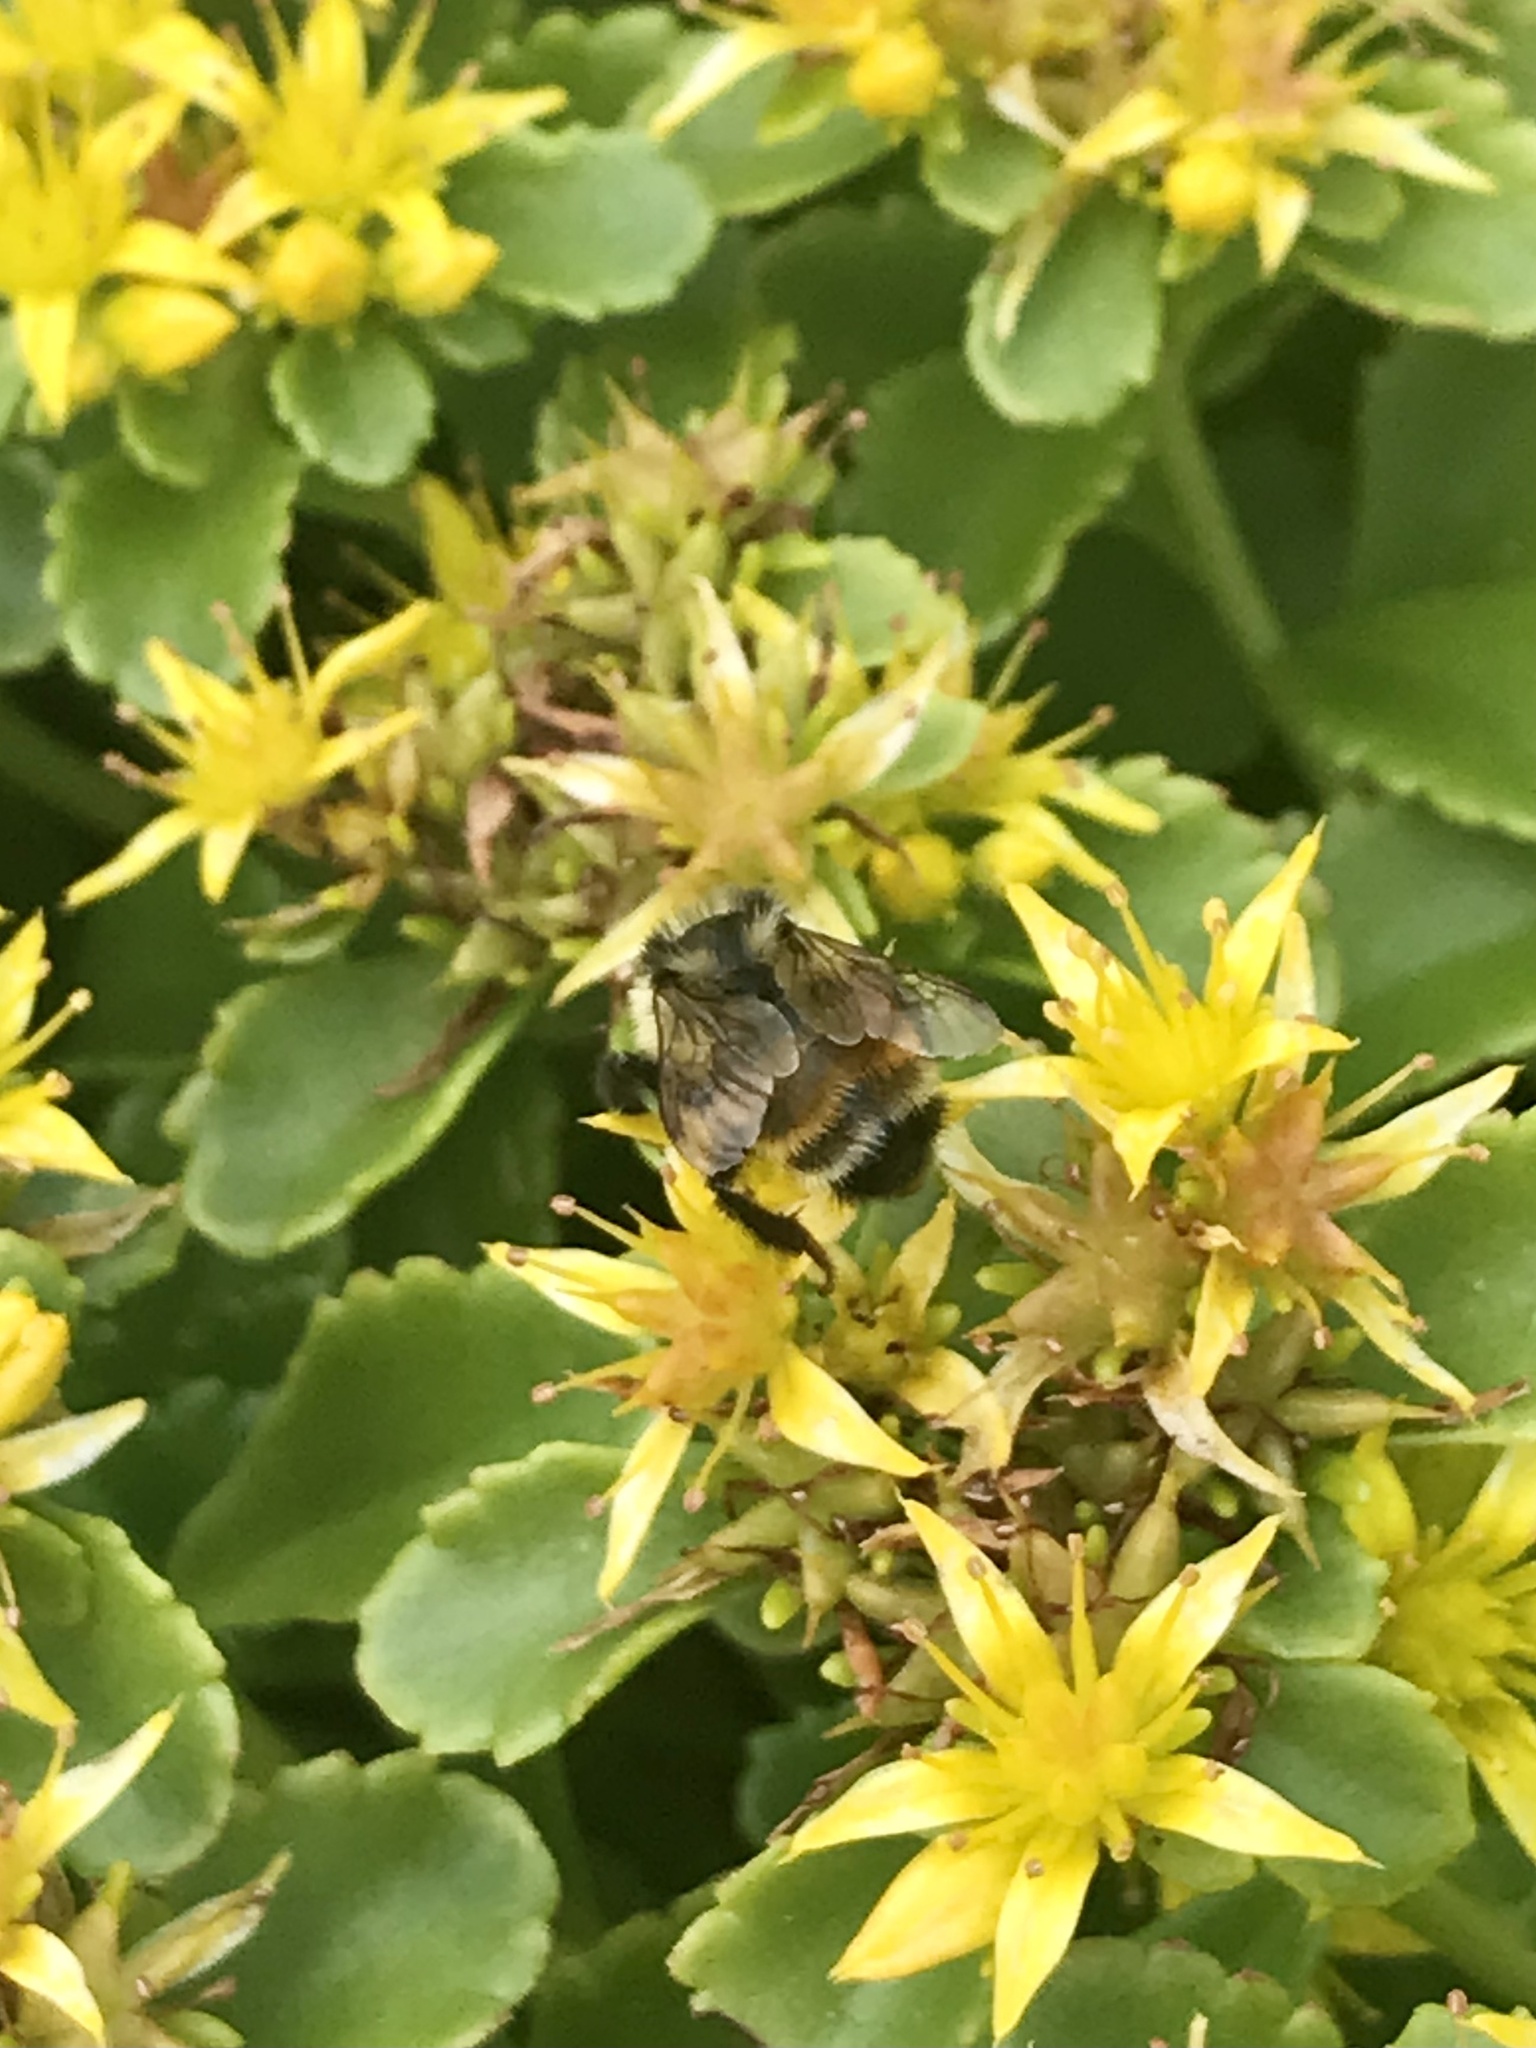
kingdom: Animalia
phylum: Arthropoda
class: Insecta
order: Hymenoptera
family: Apidae
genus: Bombus
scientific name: Bombus ternarius
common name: Tri-colored bumble bee
